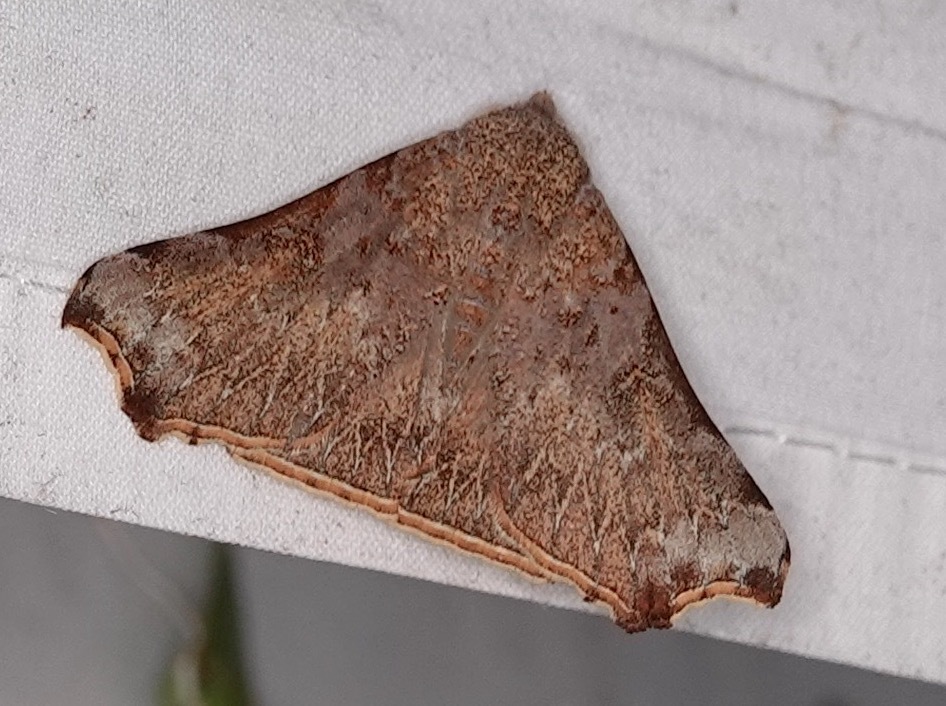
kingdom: Animalia
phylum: Arthropoda
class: Insecta
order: Lepidoptera
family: Erebidae
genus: Goniophila
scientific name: Goniophila excavata
